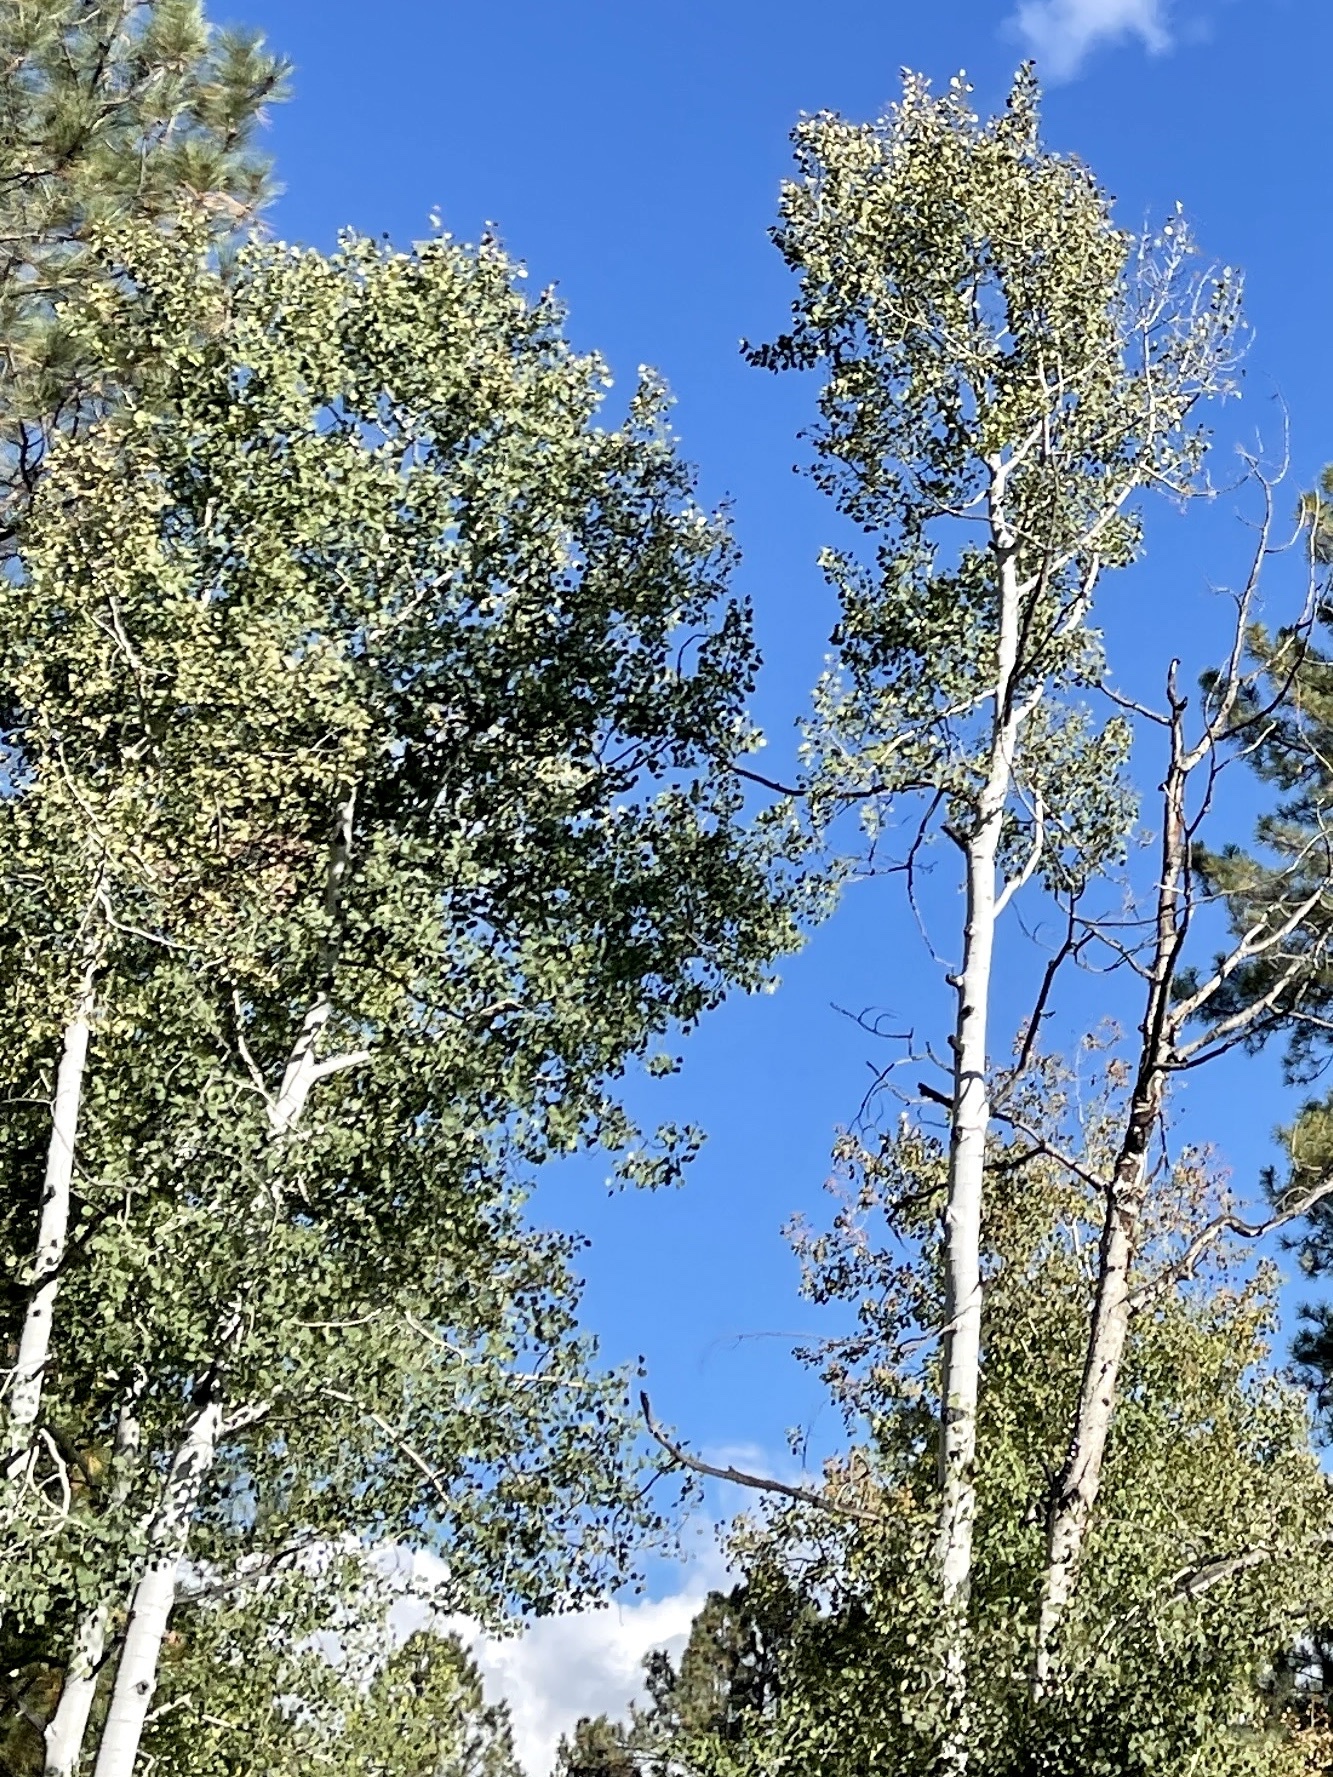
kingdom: Plantae
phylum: Tracheophyta
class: Magnoliopsida
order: Malpighiales
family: Salicaceae
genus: Populus
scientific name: Populus tremuloides
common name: Quaking aspen
